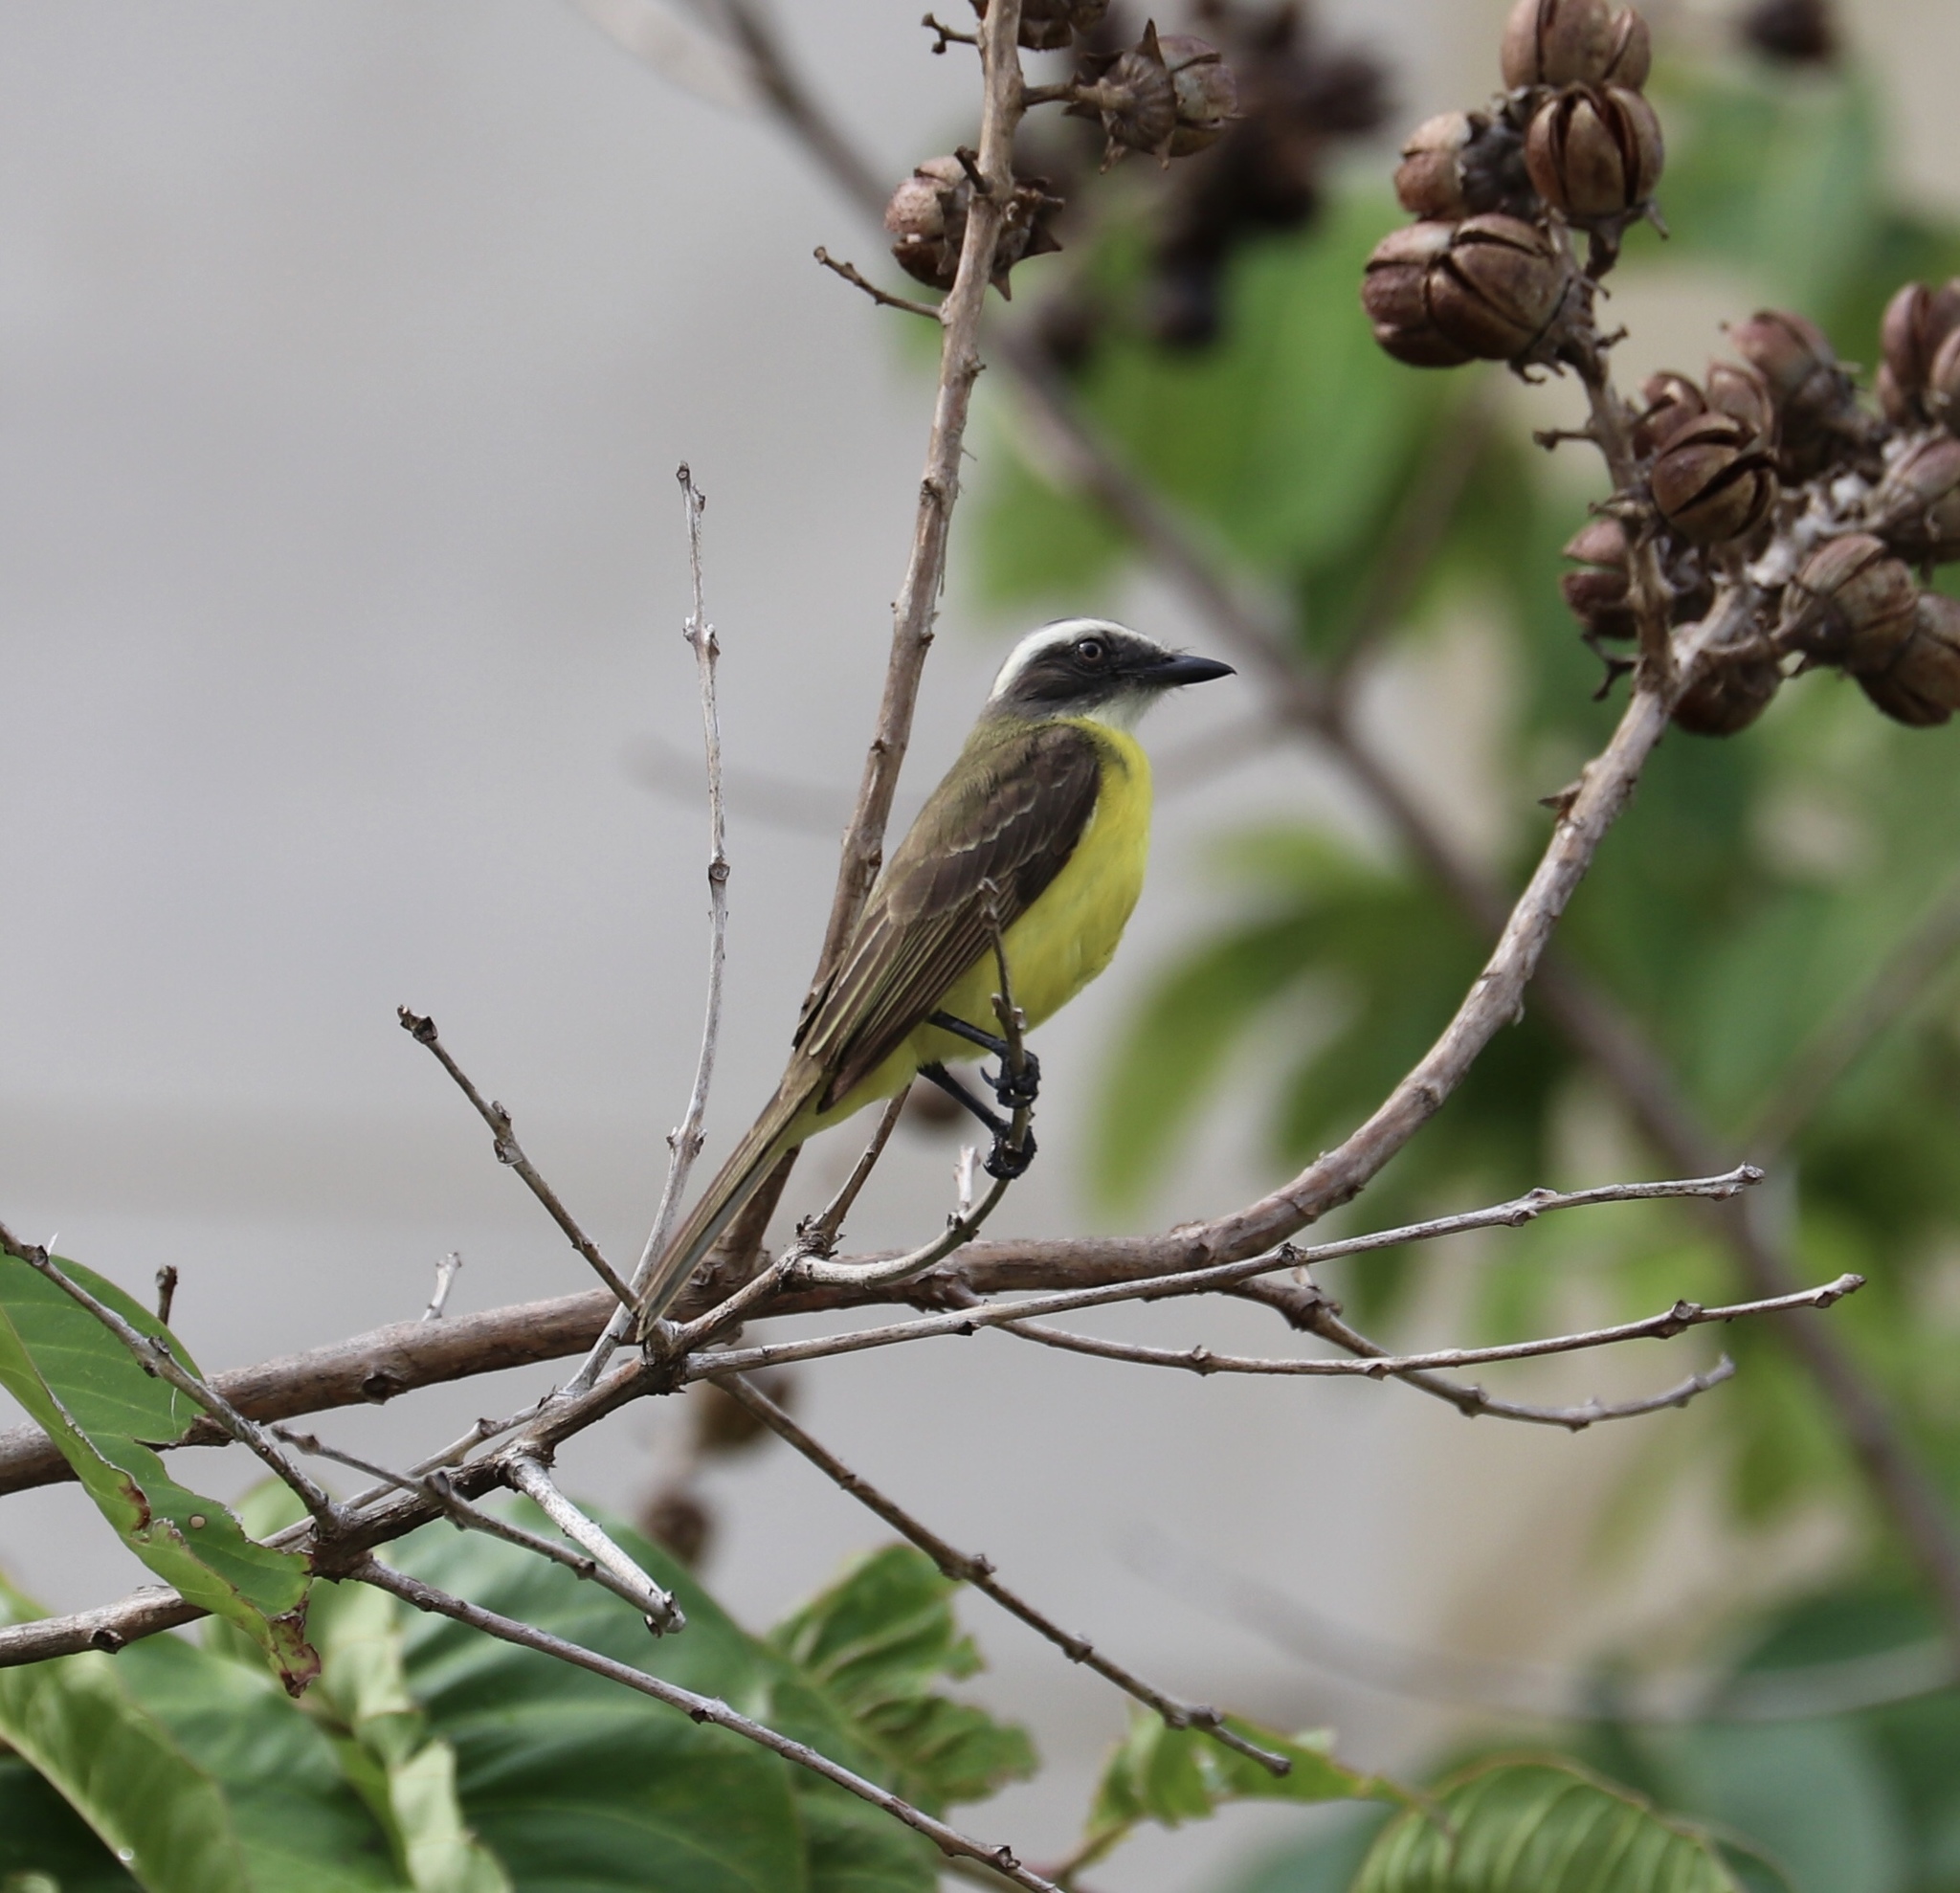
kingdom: Animalia
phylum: Chordata
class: Aves
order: Passeriformes
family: Tyrannidae
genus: Myiozetetes
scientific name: Myiozetetes similis
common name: Social flycatcher
